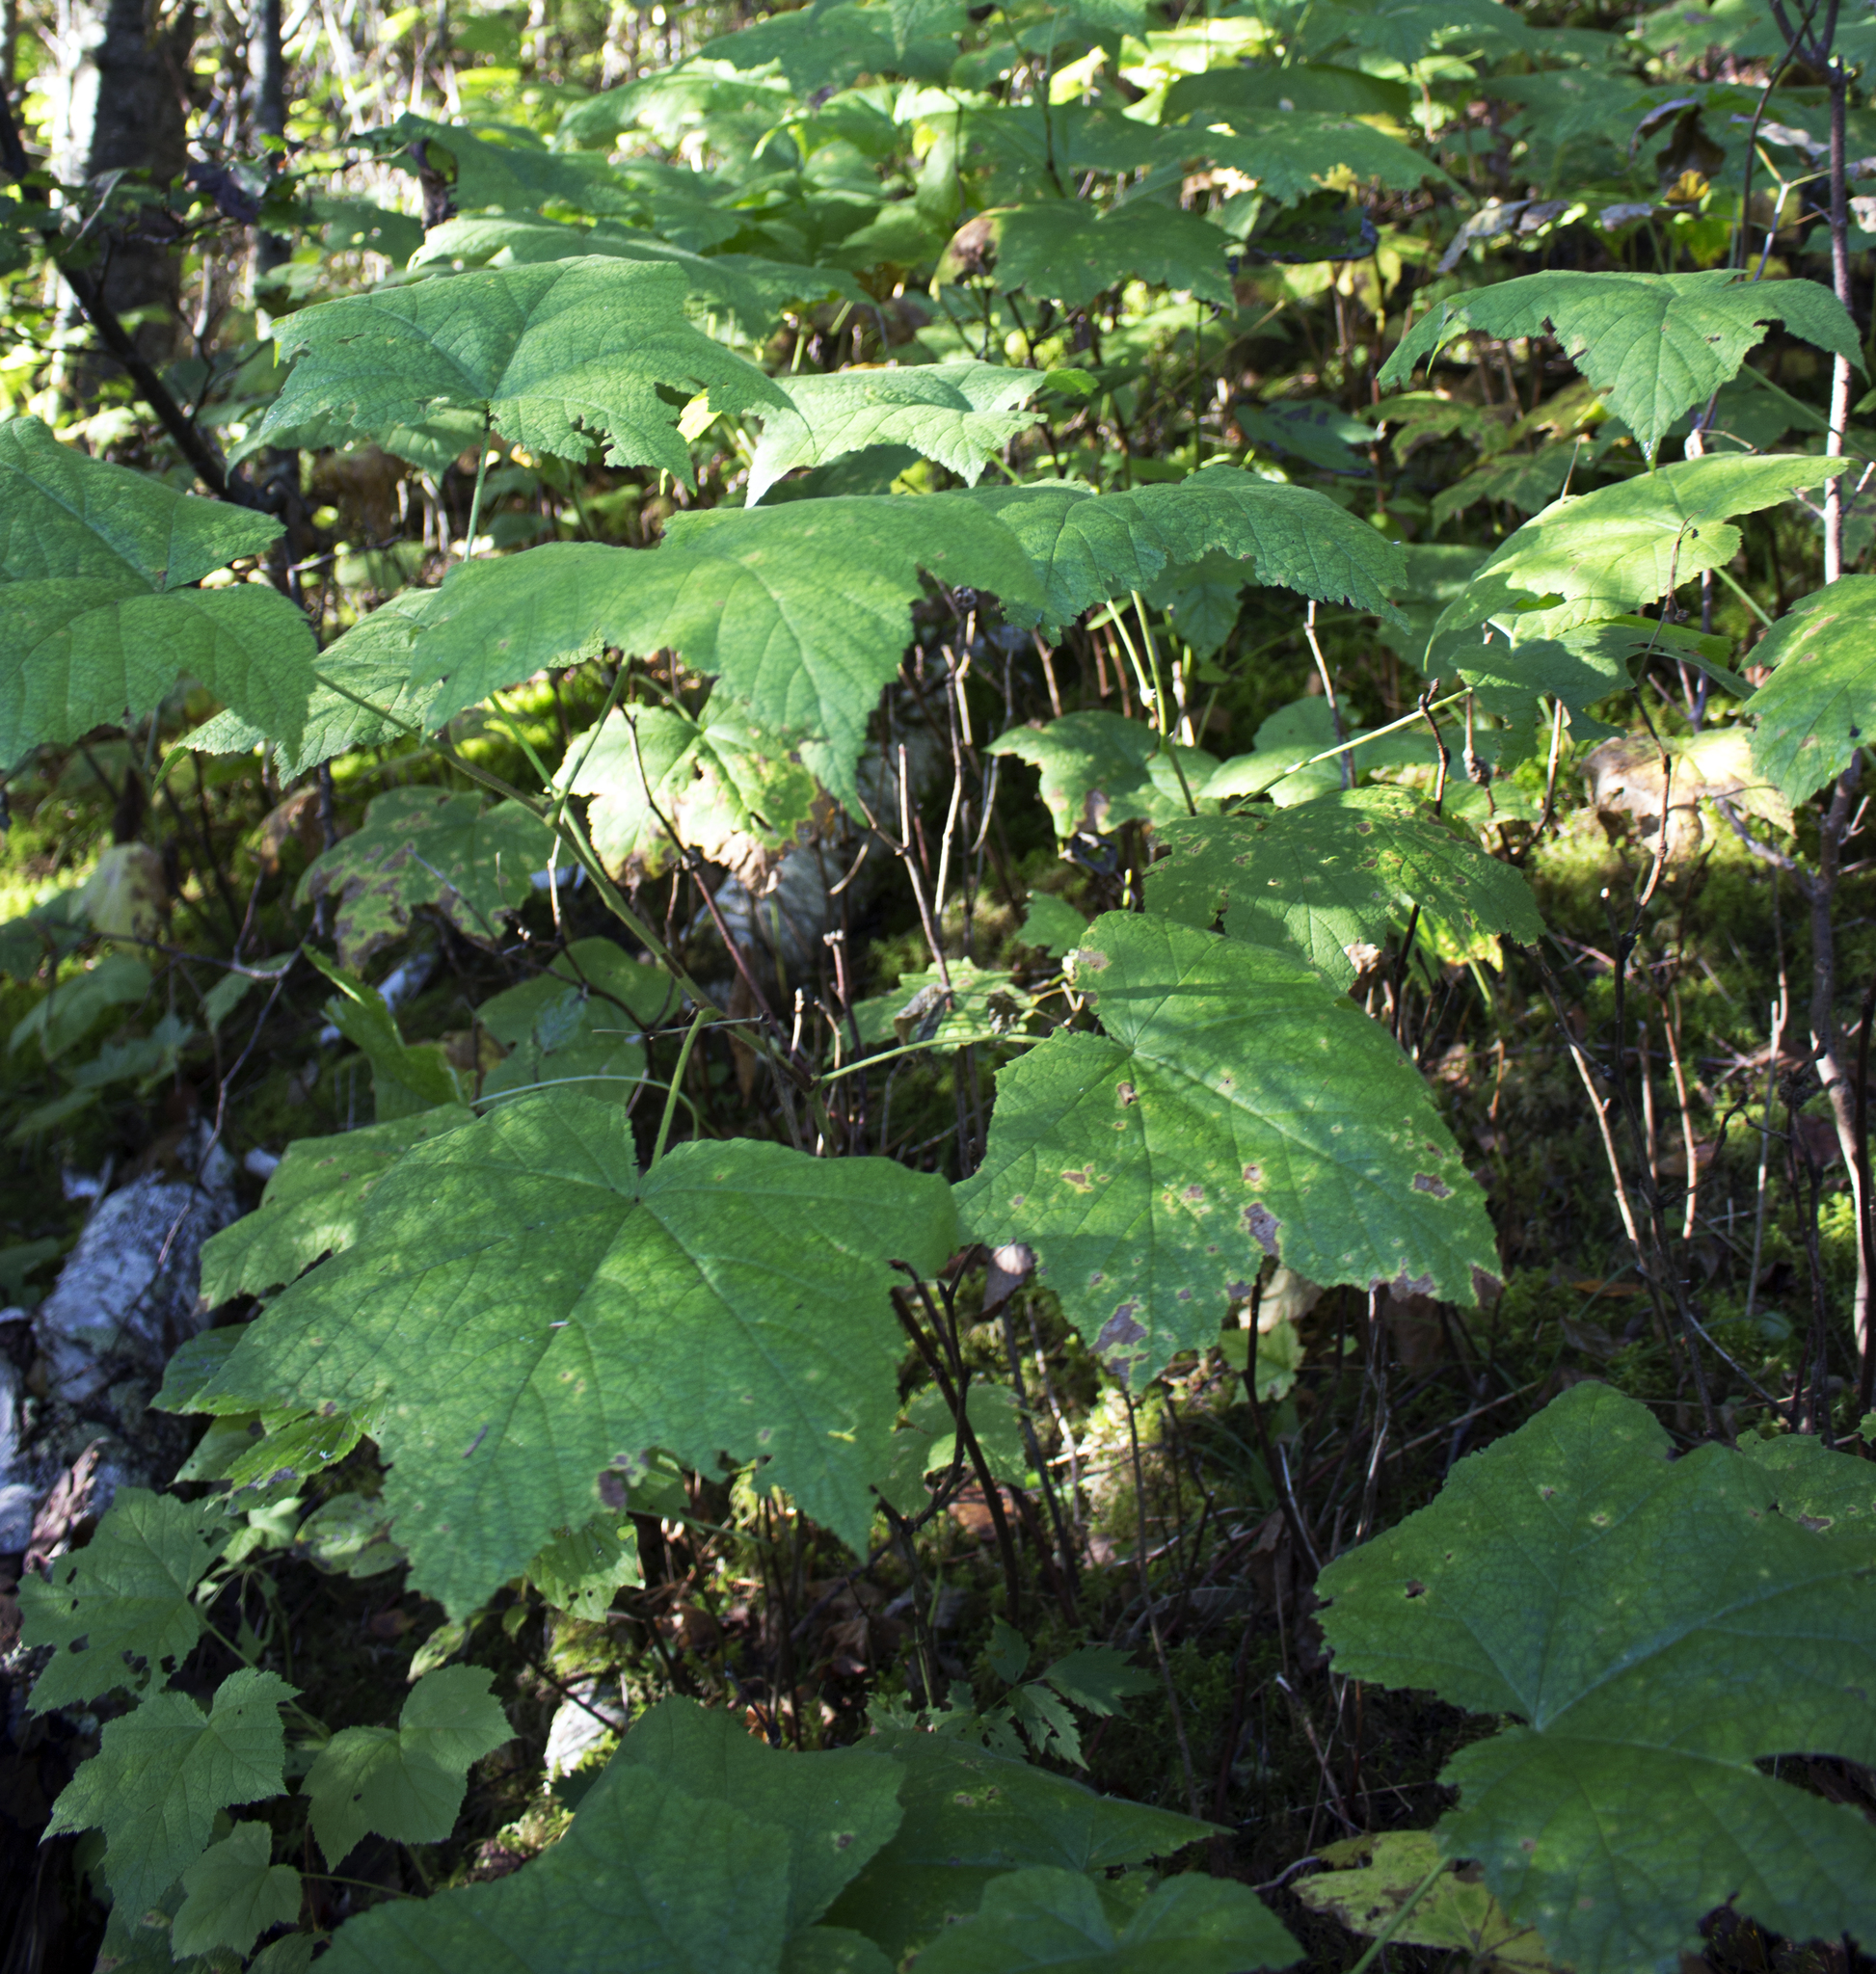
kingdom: Plantae
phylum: Tracheophyta
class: Magnoliopsida
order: Rosales
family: Rosaceae
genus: Rubus
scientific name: Rubus parviflorus
